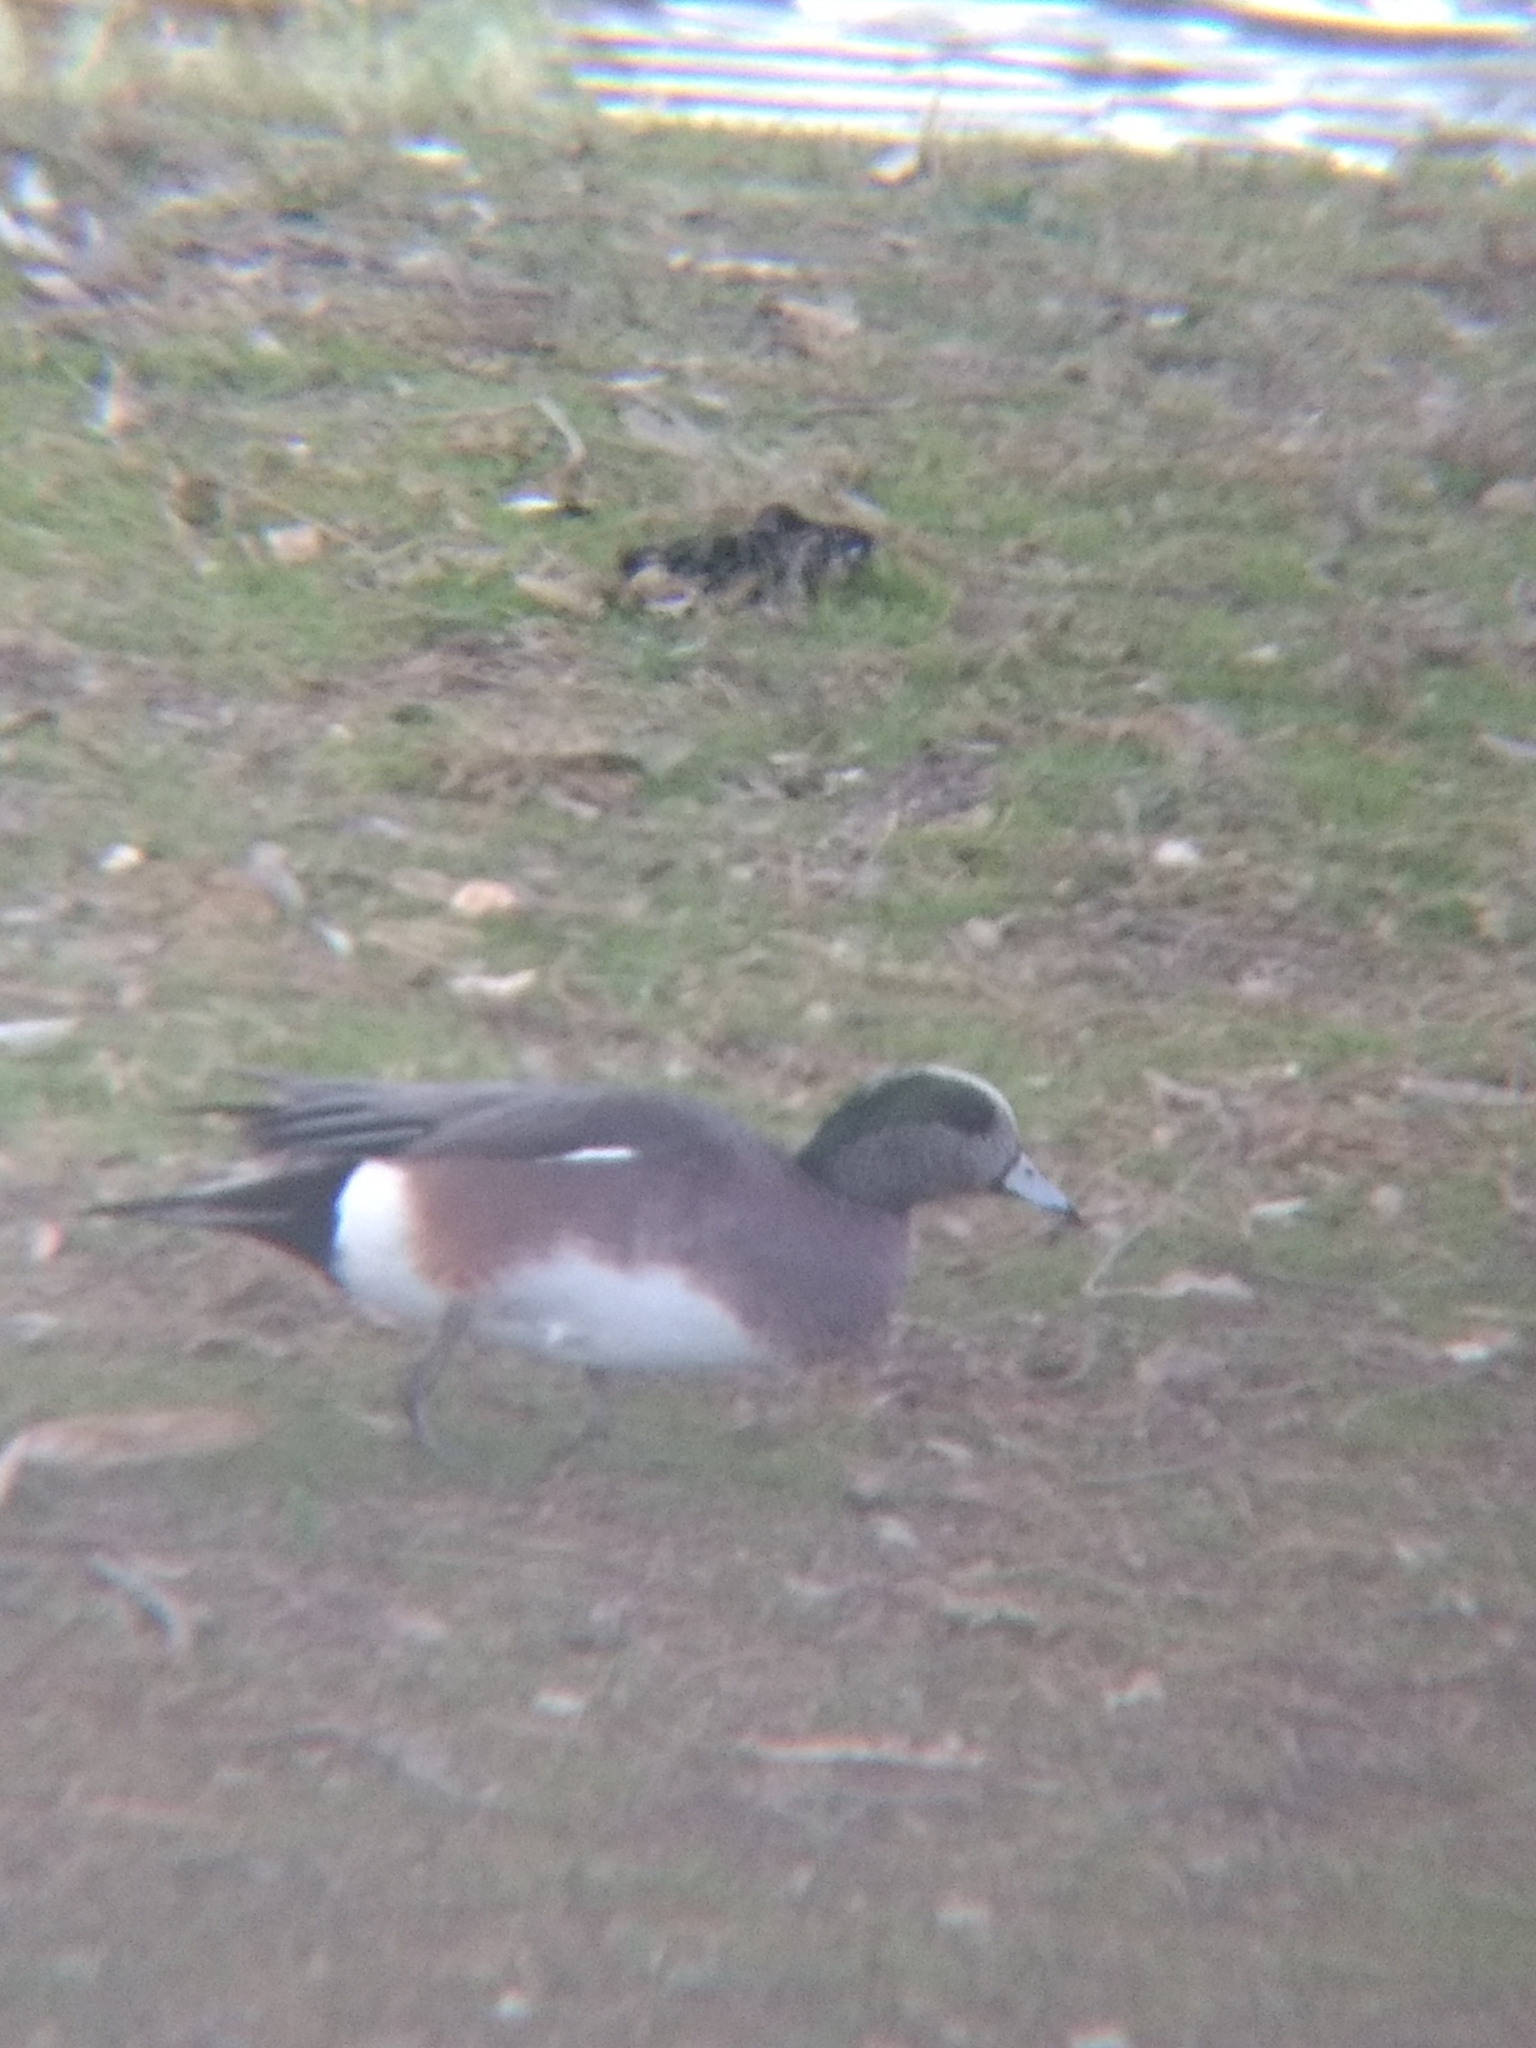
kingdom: Animalia
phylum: Chordata
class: Aves
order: Anseriformes
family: Anatidae
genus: Mareca
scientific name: Mareca americana
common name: American wigeon
